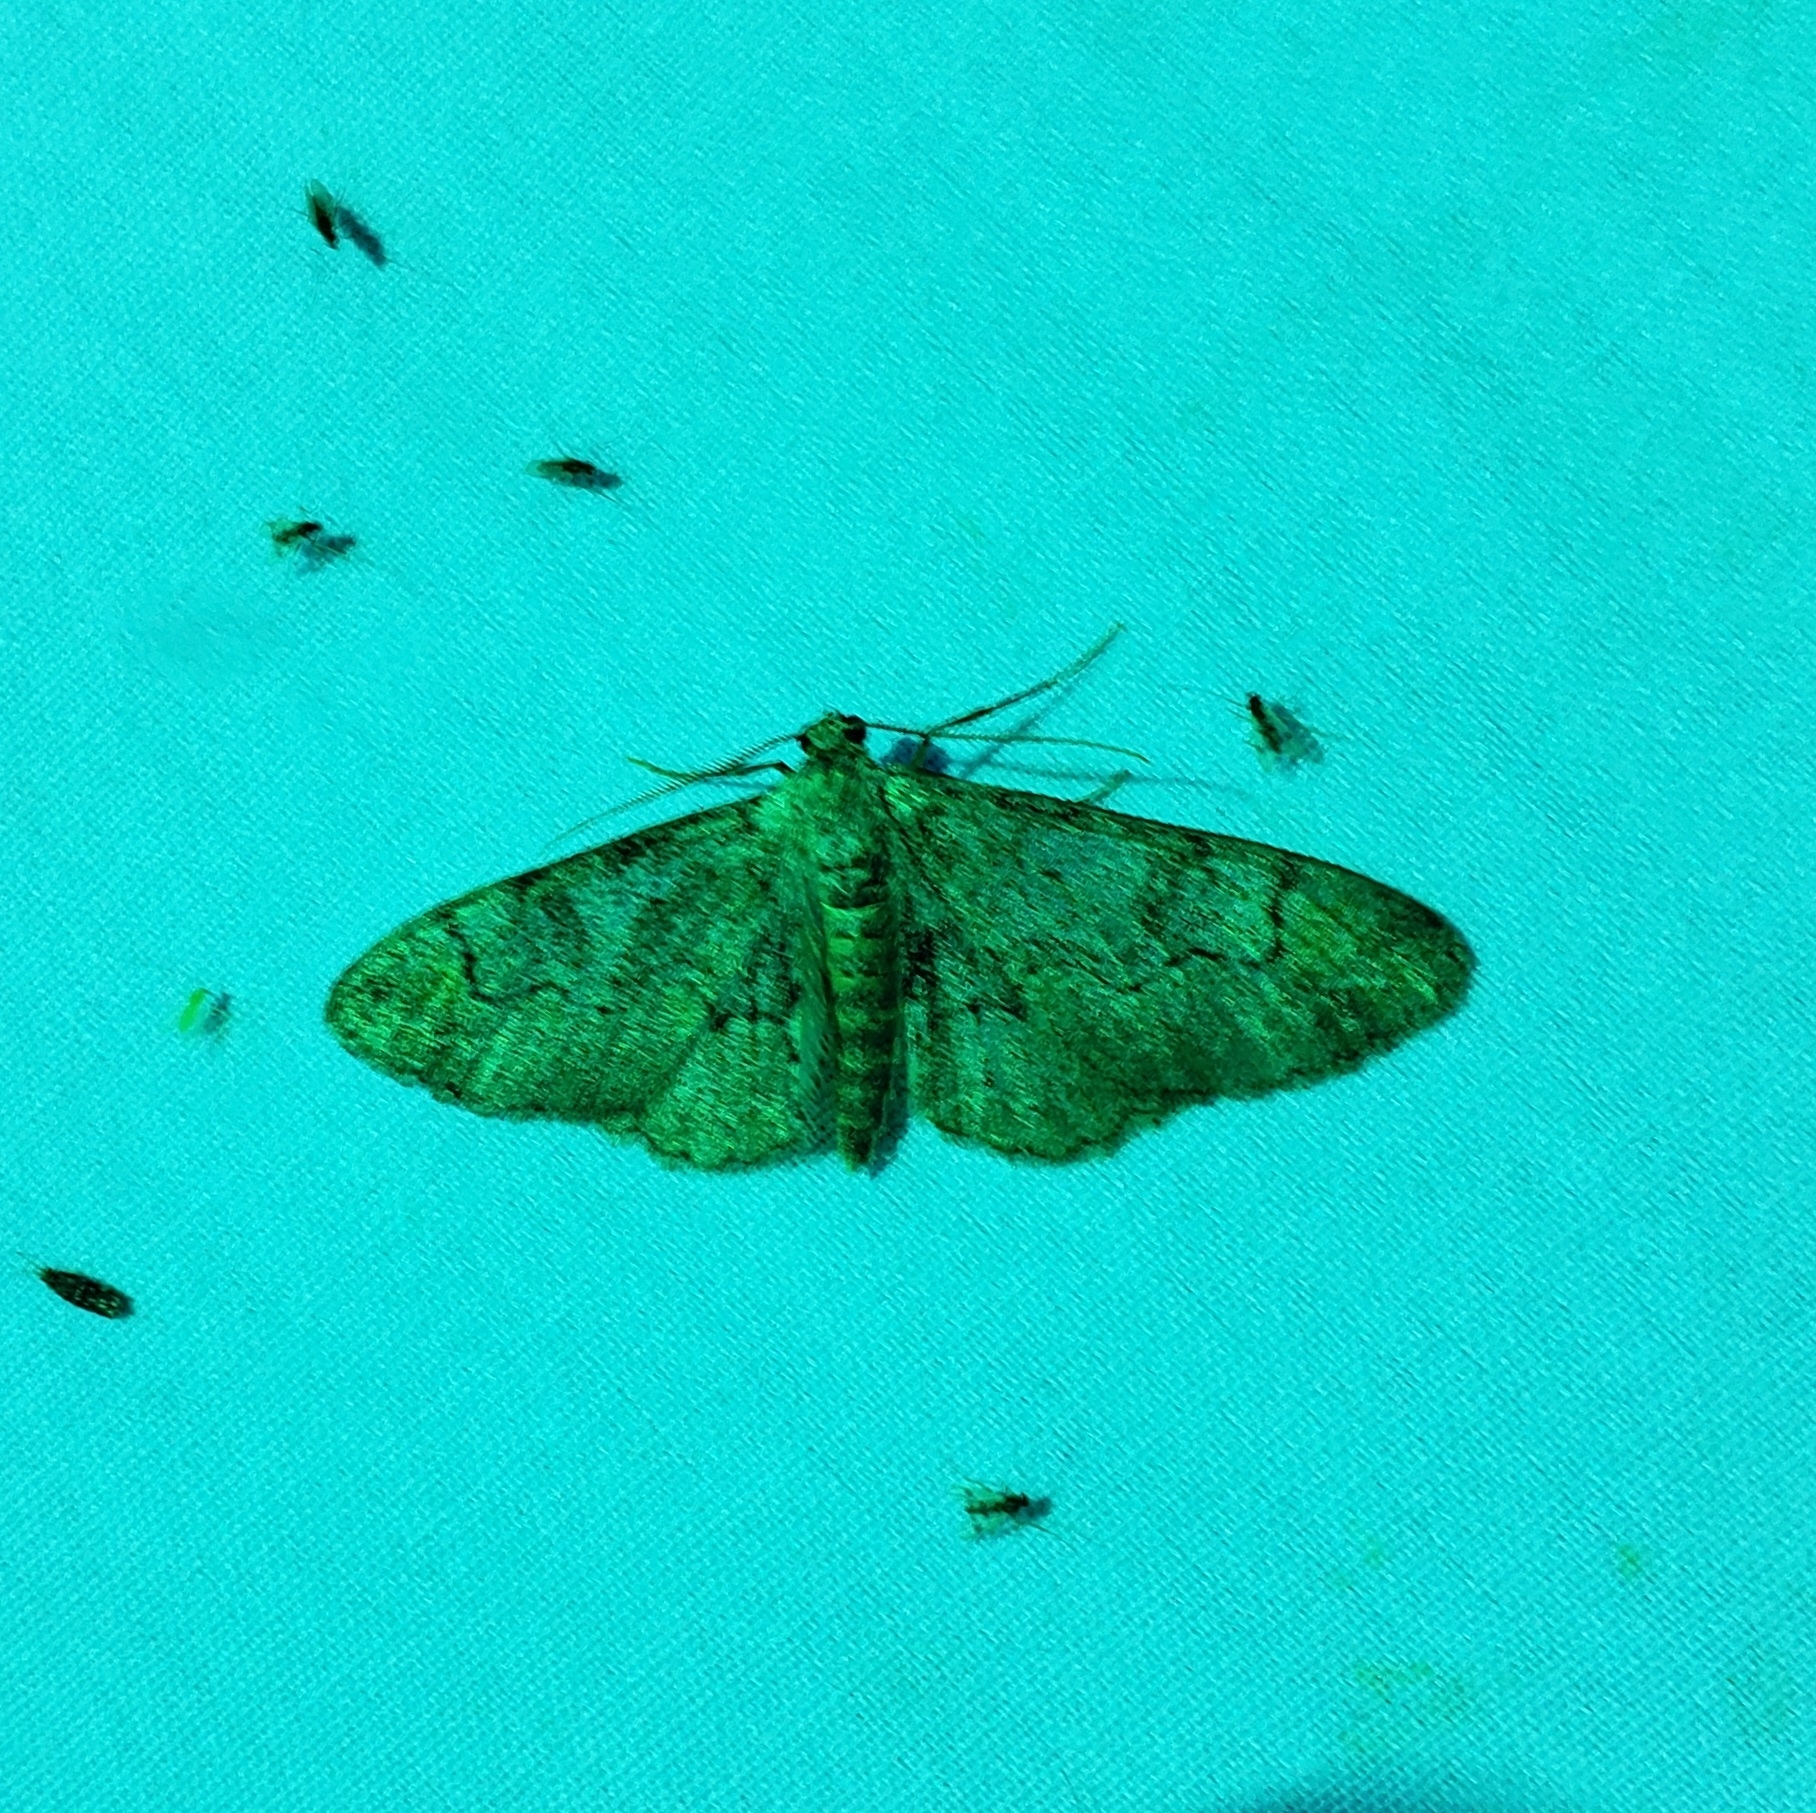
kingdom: Animalia
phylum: Arthropoda
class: Insecta
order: Lepidoptera
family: Geometridae
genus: Iridopsis
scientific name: Iridopsis larvaria
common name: Bent-line gray
